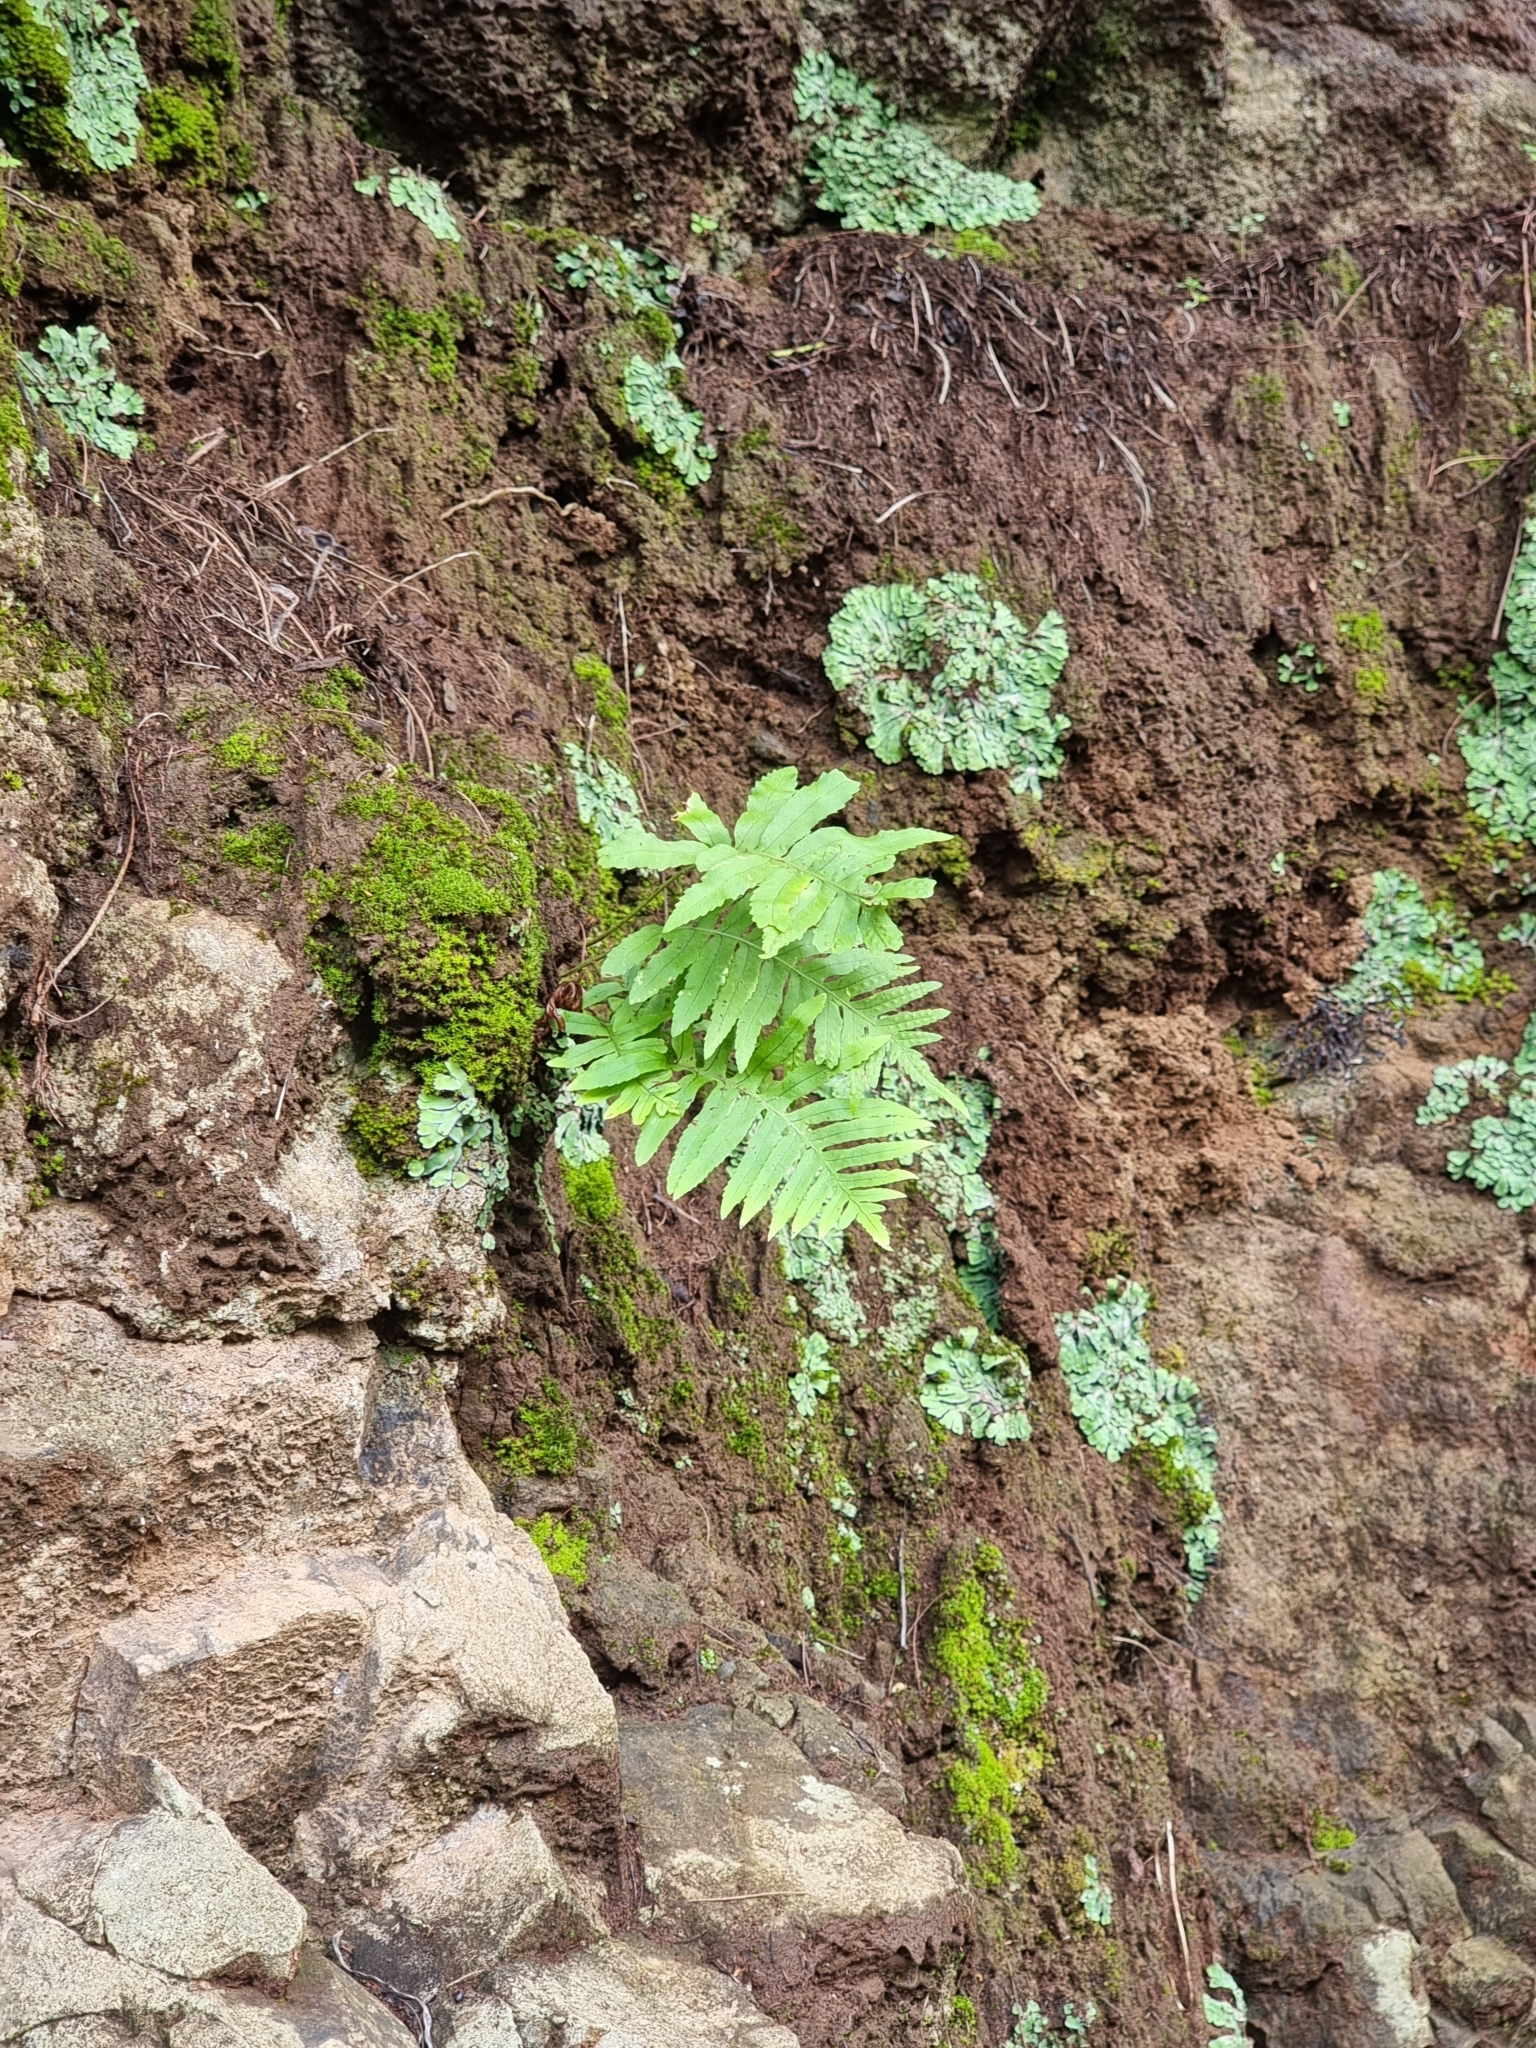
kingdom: Plantae
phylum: Tracheophyta
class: Polypodiopsida
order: Polypodiales
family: Polypodiaceae
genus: Polypodium
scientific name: Polypodium macaronesicum
